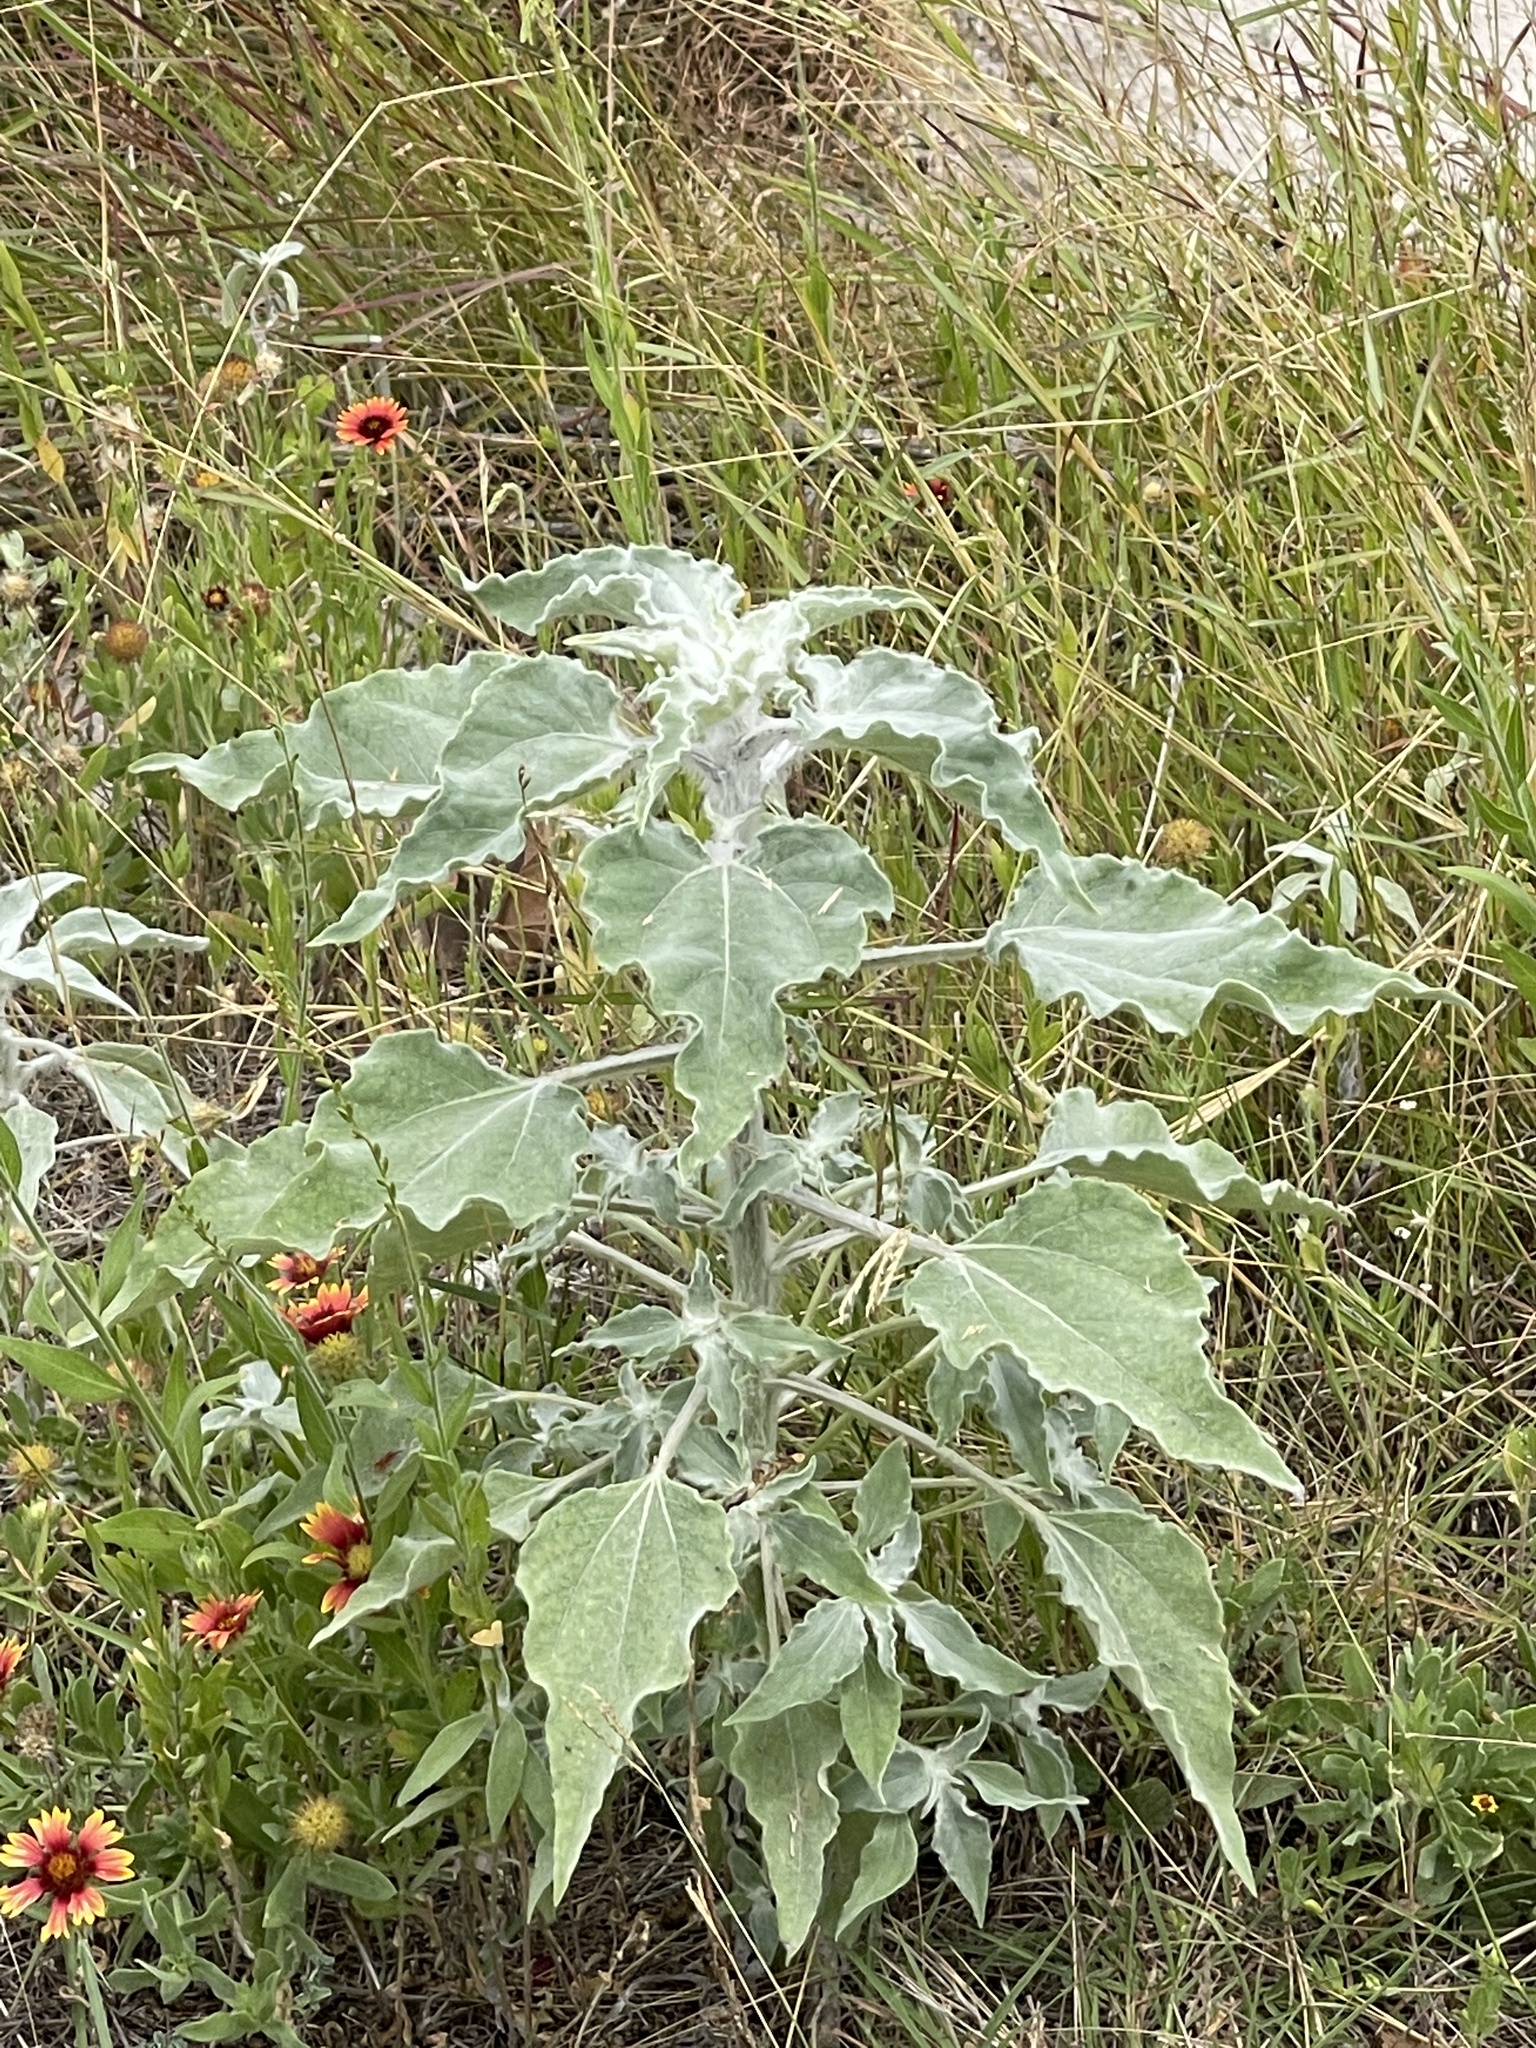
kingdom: Plantae
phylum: Tracheophyta
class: Magnoliopsida
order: Asterales
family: Asteraceae
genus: Helianthus
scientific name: Helianthus argophyllus
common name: Silverleaf sunflower
